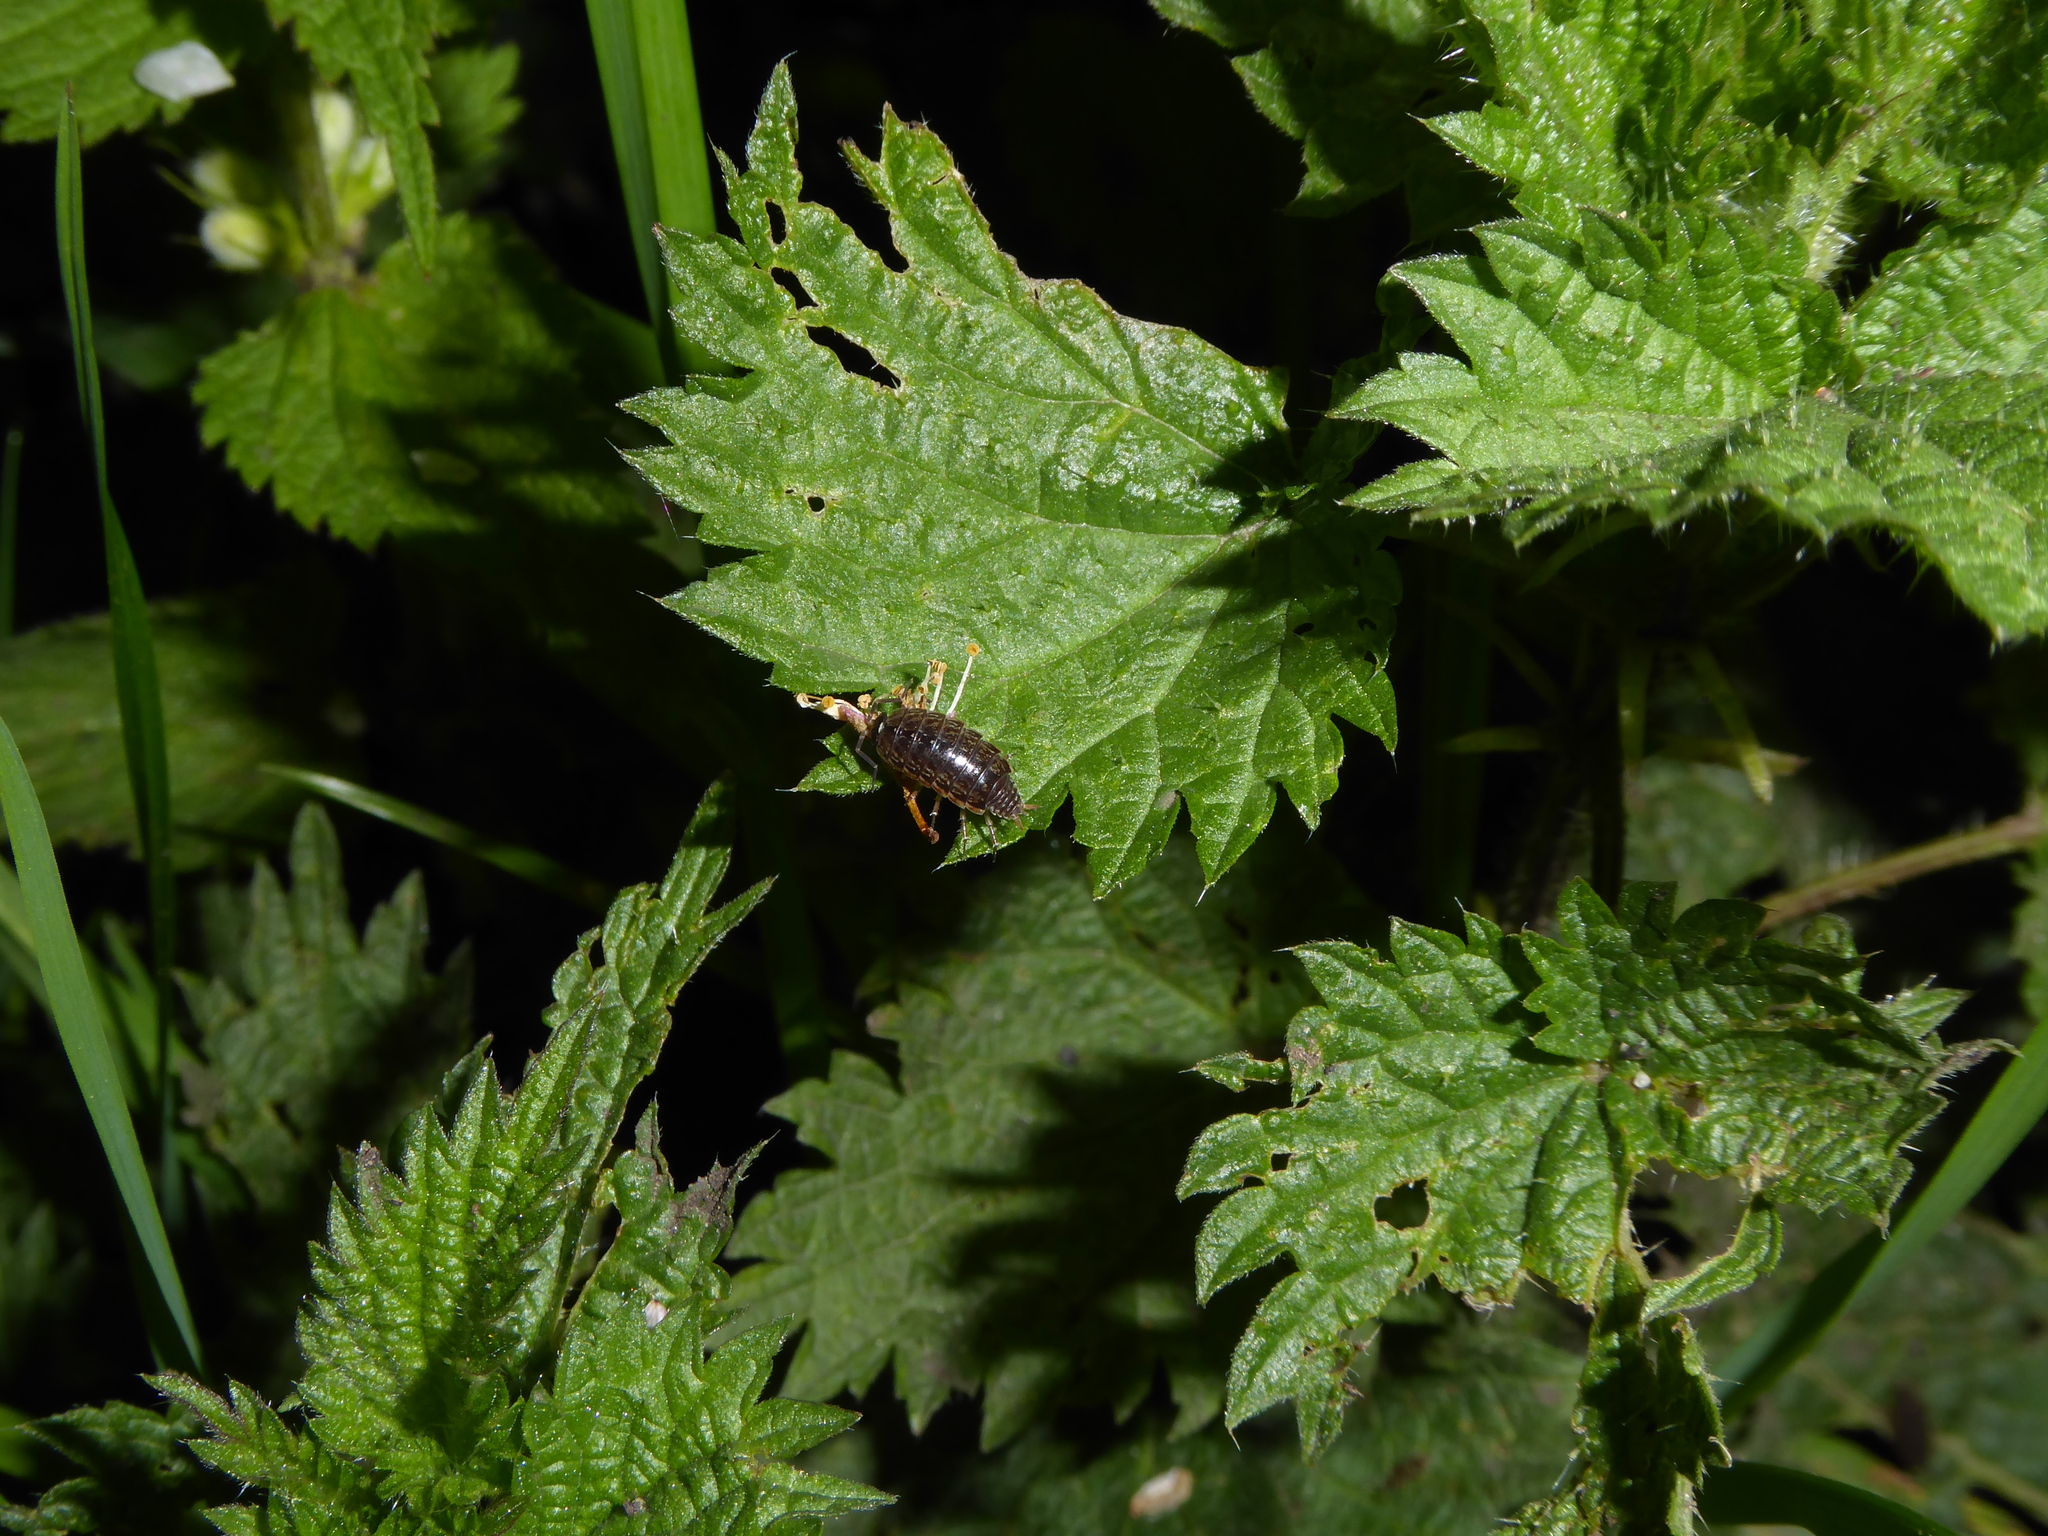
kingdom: Animalia
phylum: Arthropoda
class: Malacostraca
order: Isopoda
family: Philosciidae
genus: Philoscia
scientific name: Philoscia muscorum
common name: Common striped woodlouse
